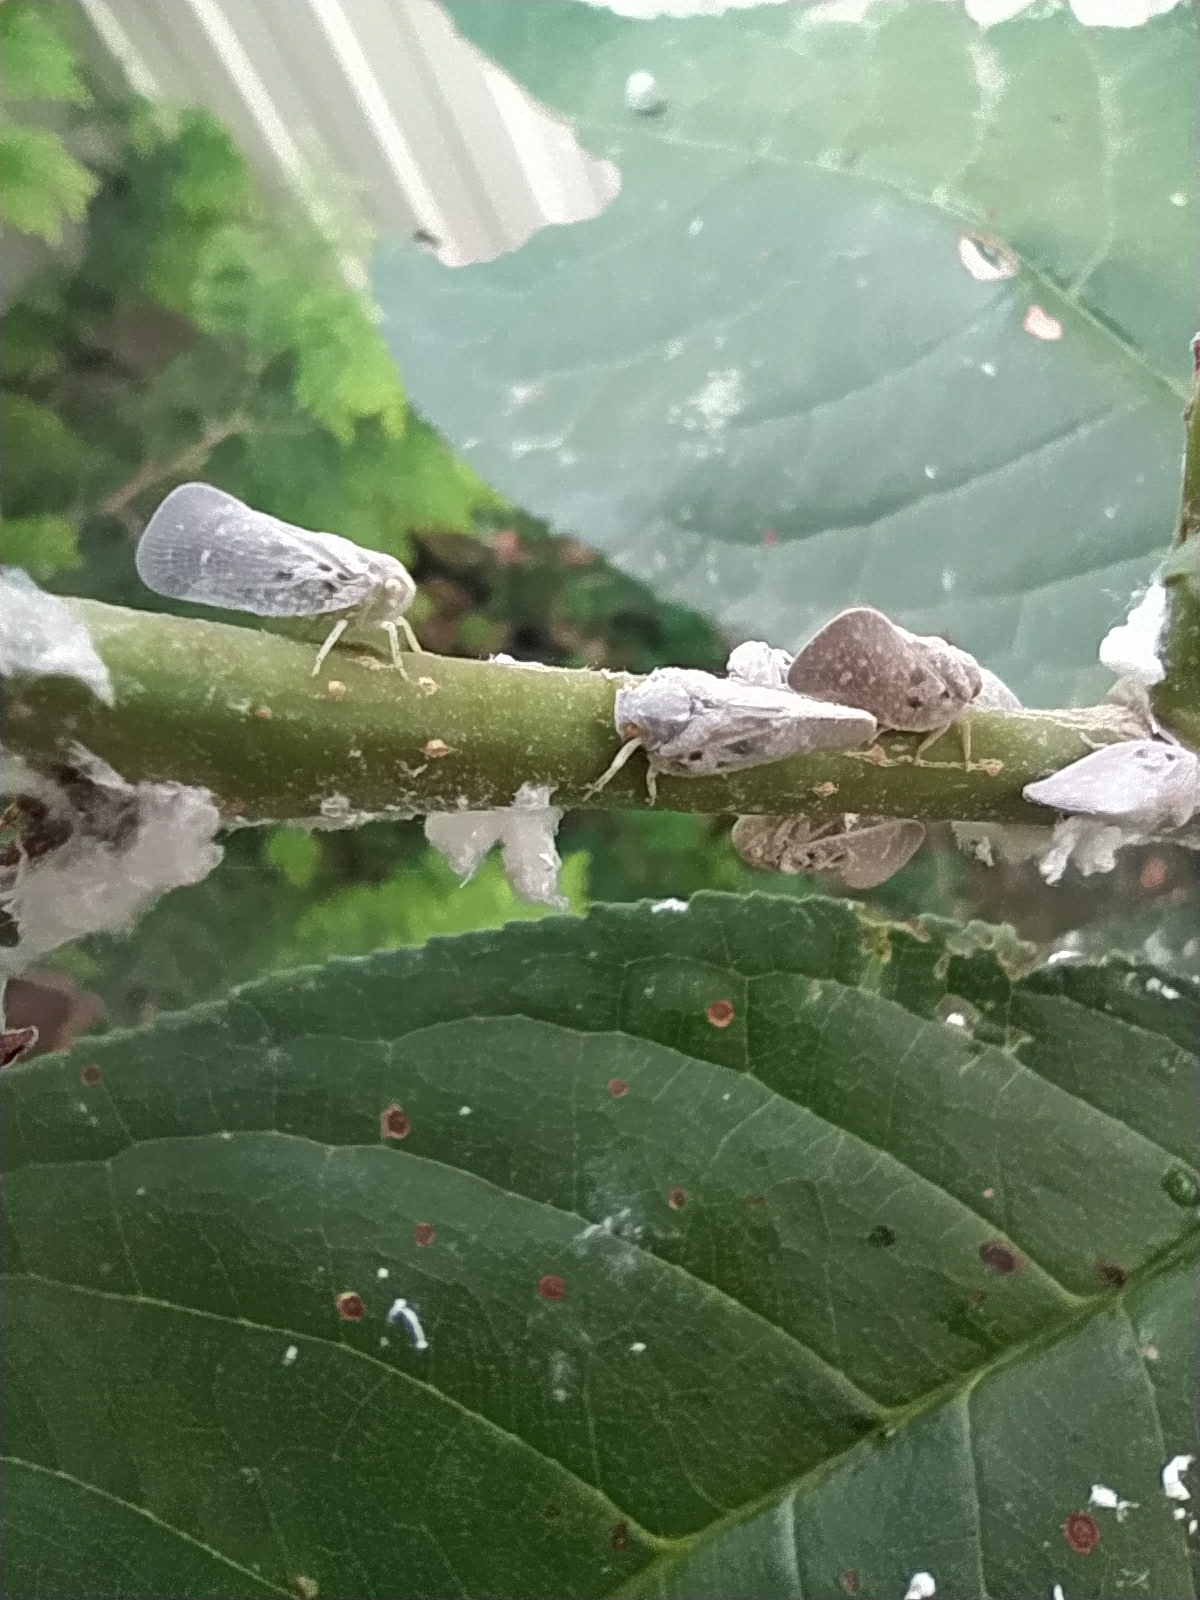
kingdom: Animalia
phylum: Arthropoda
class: Insecta
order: Hemiptera
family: Flatidae
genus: Metcalfa
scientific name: Metcalfa pruinosa
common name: Citrus flatid planthopper
